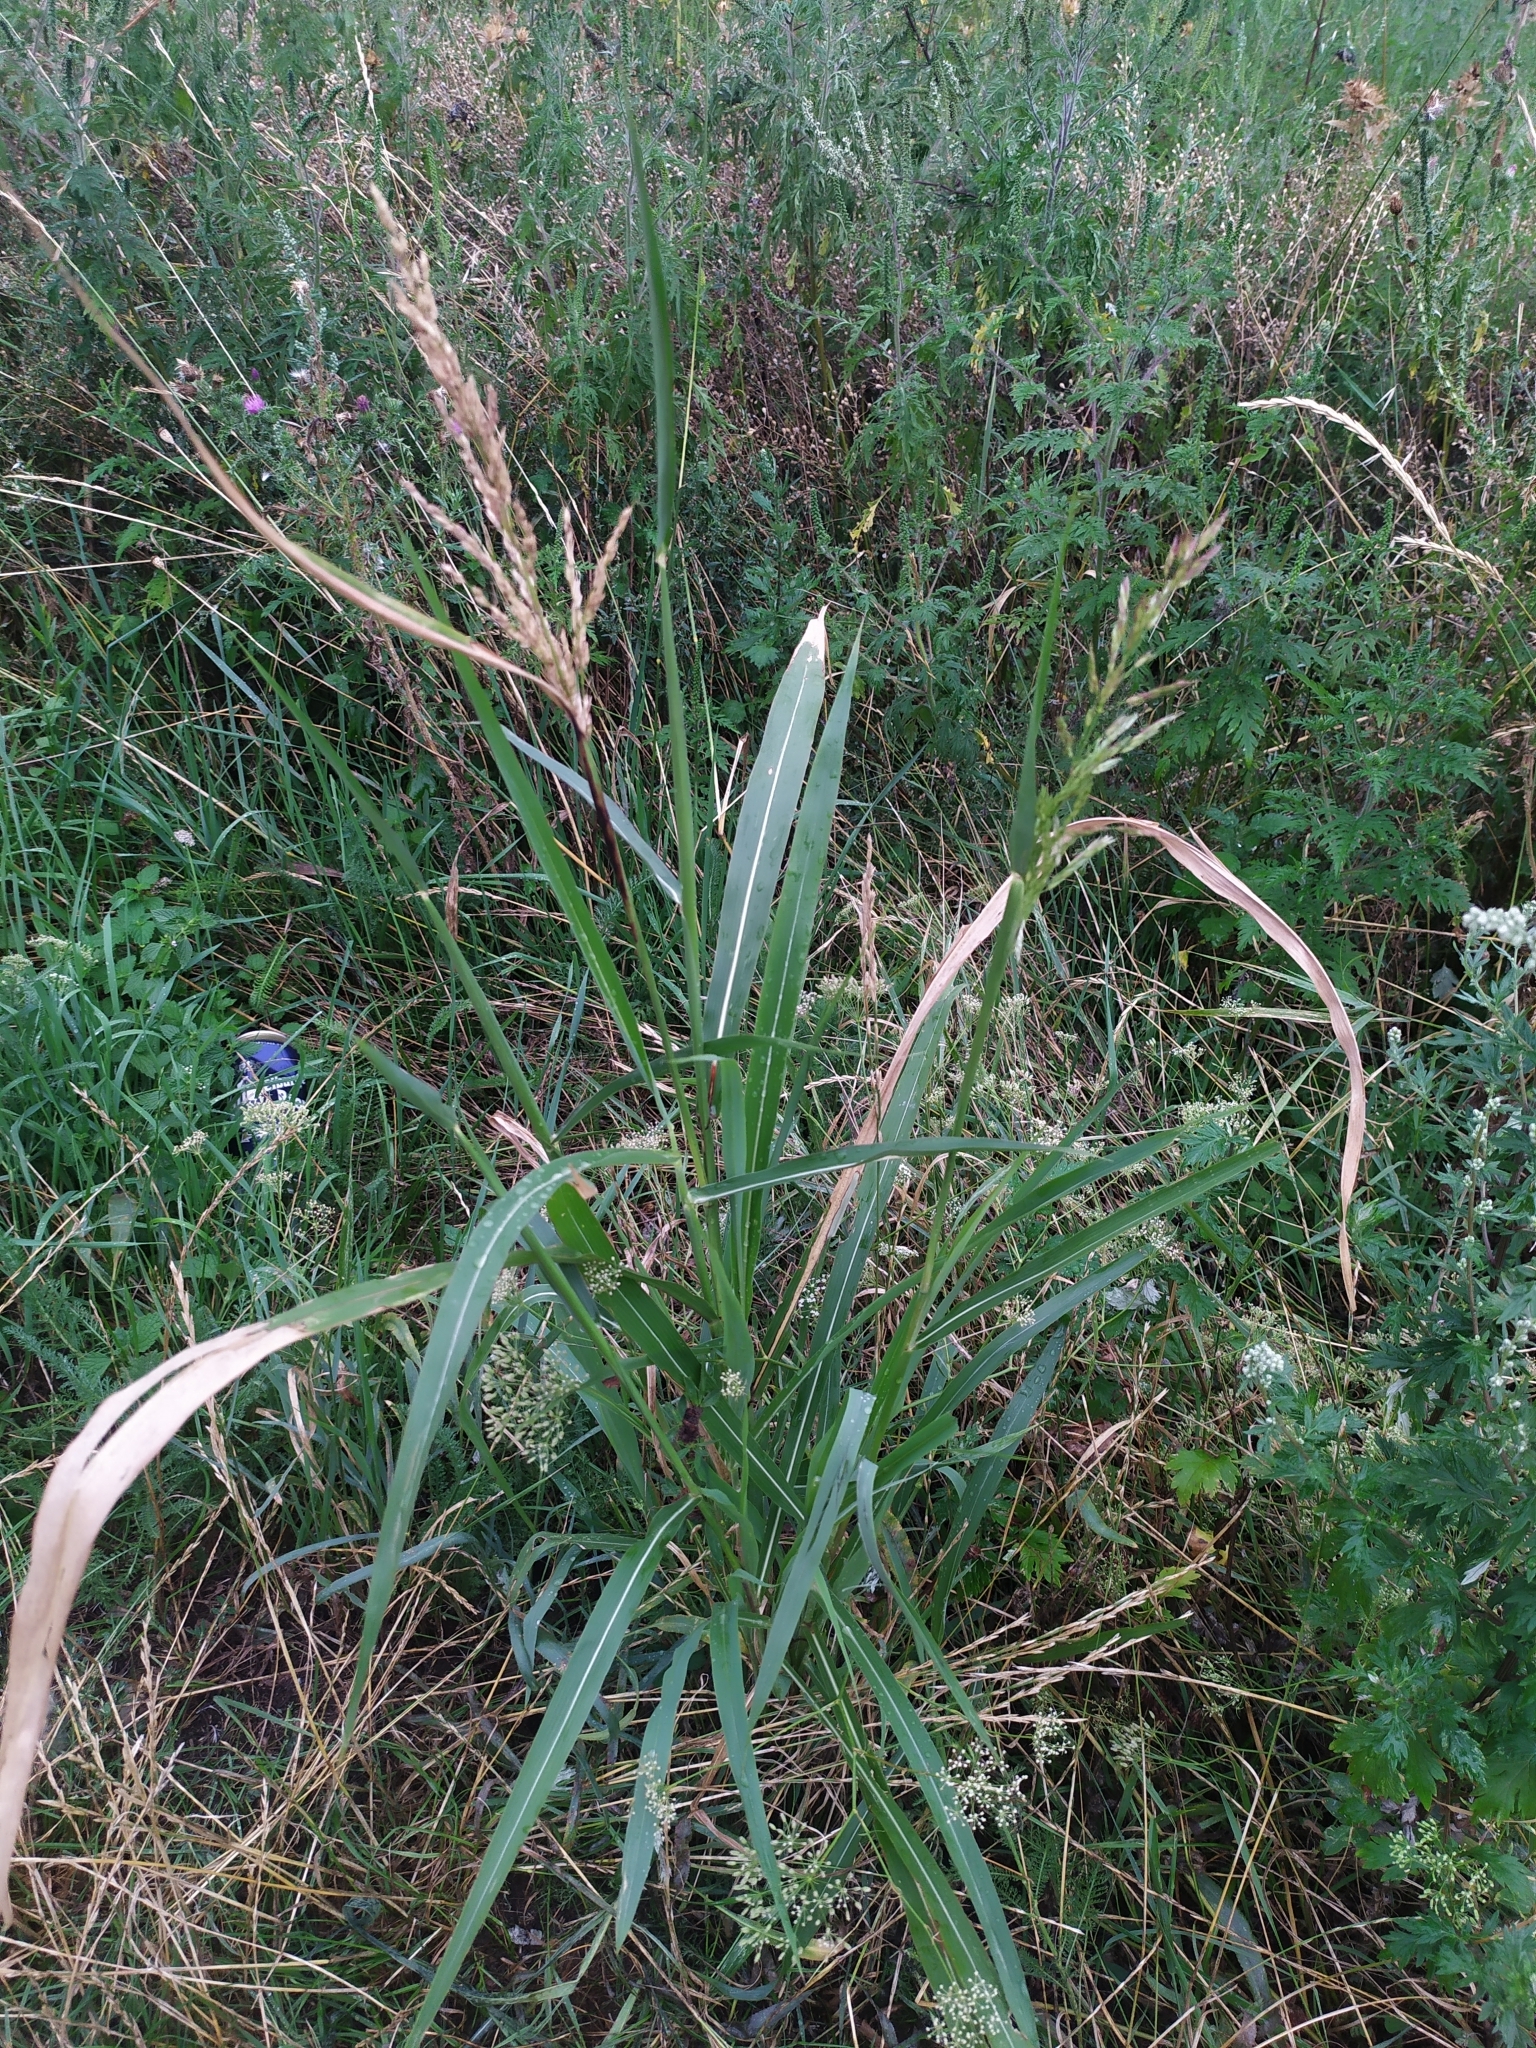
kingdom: Plantae
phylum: Tracheophyta
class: Liliopsida
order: Poales
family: Poaceae
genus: Sorghum
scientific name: Sorghum halepense
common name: Johnson-grass
